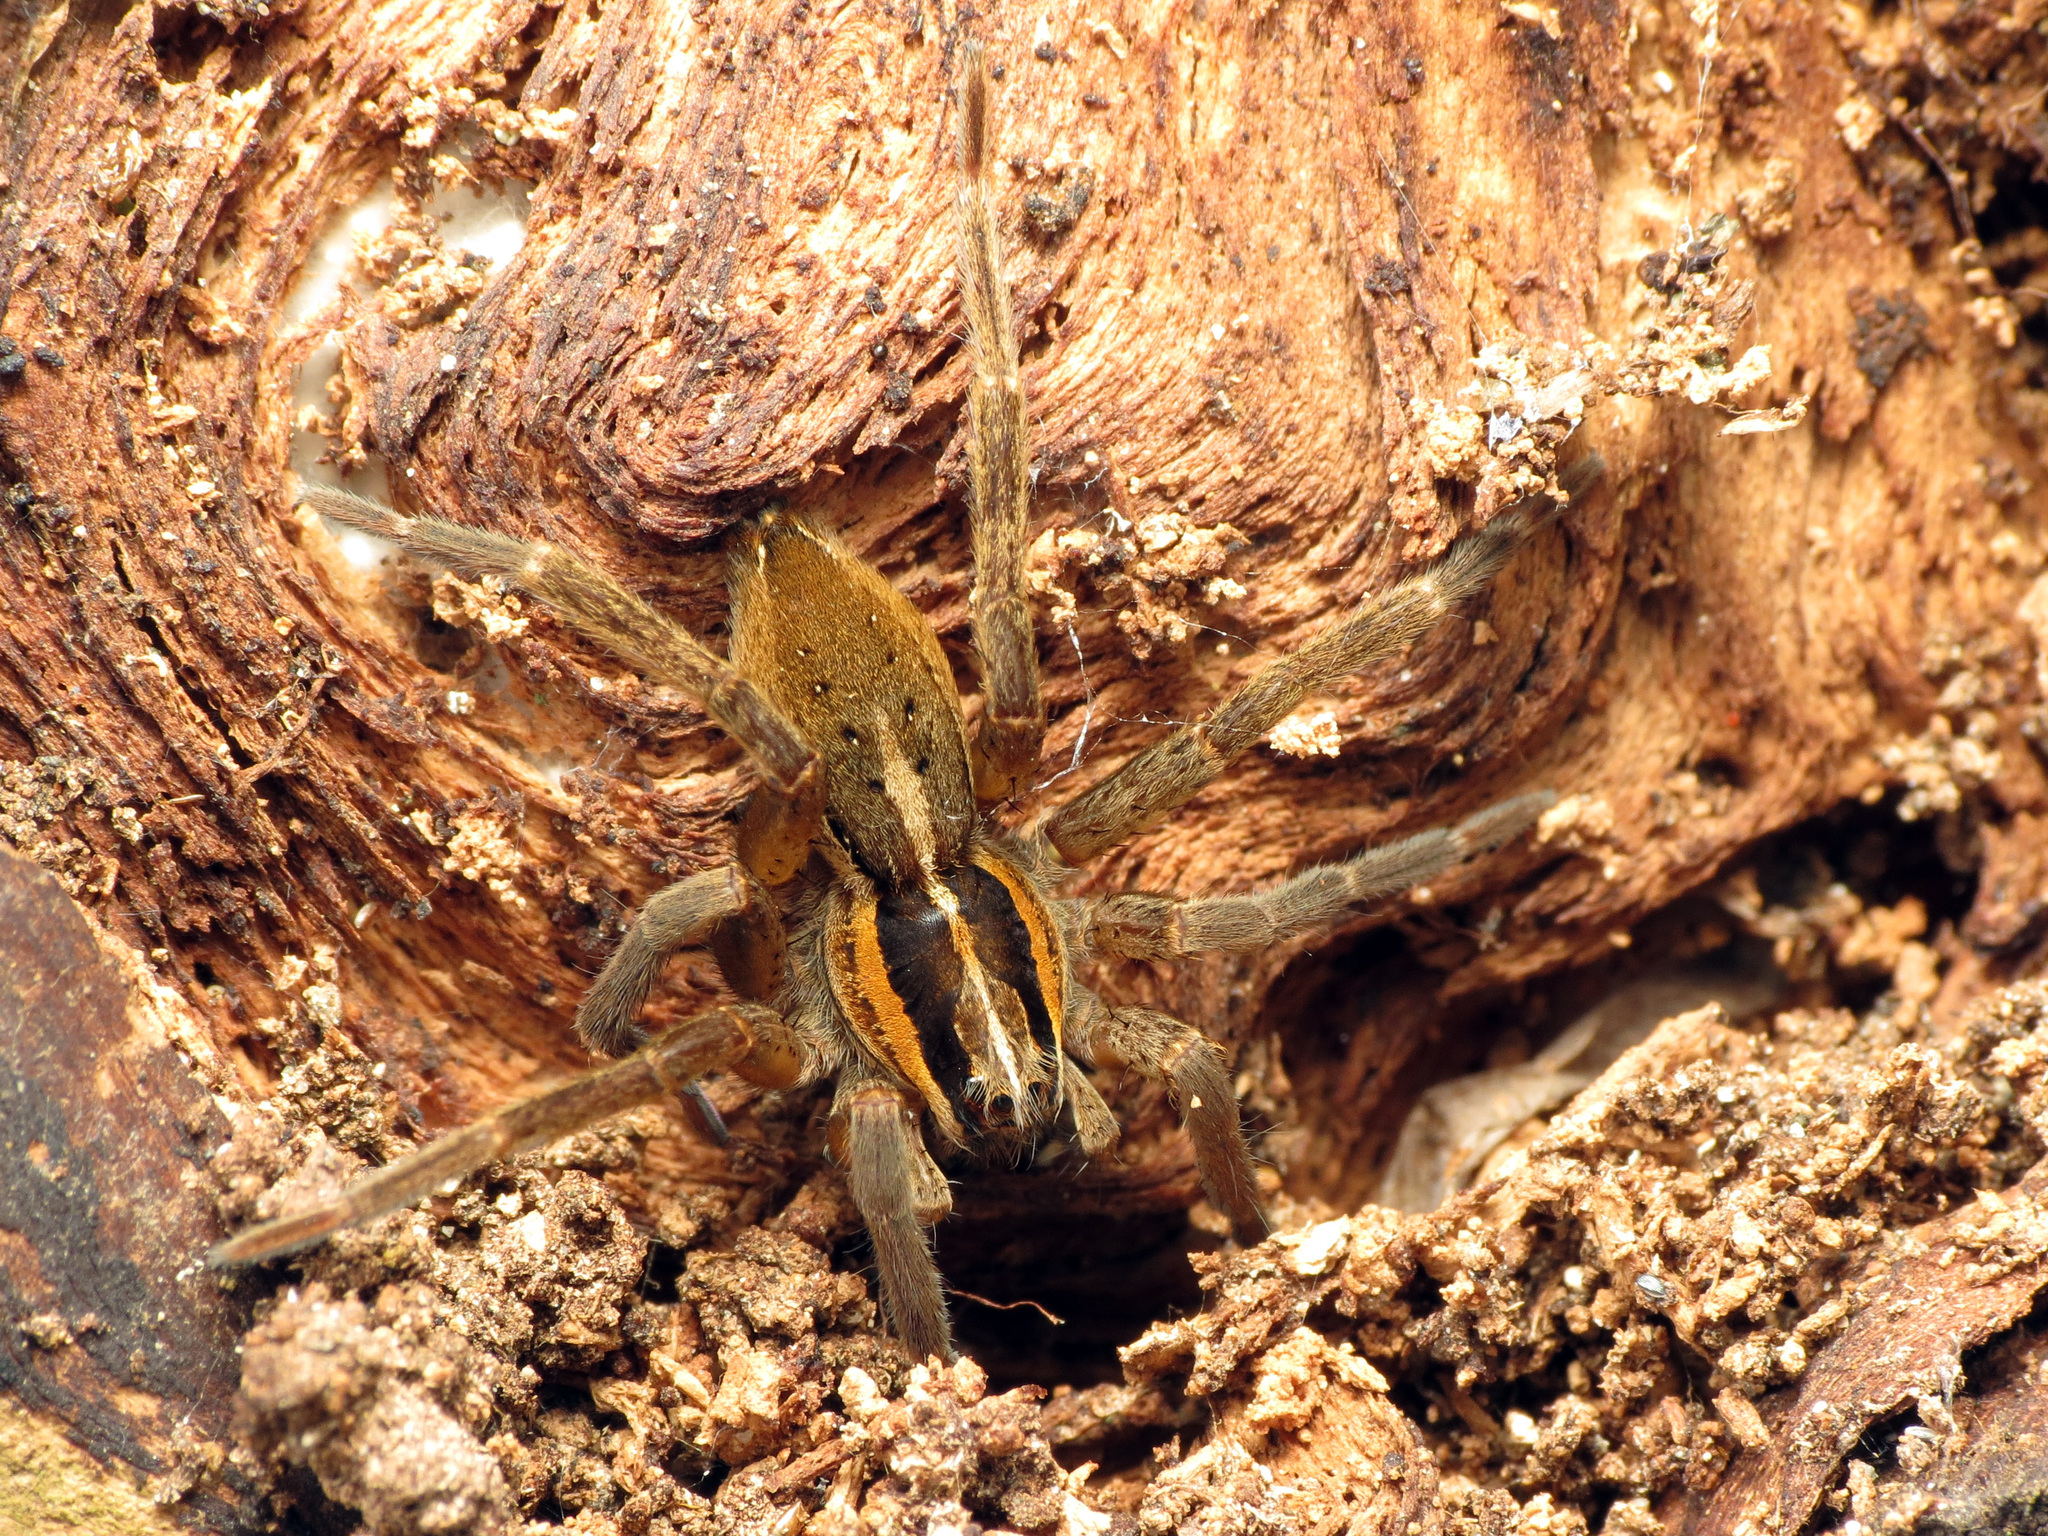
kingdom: Animalia
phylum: Arthropoda
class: Arachnida
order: Araneae
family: Pisauridae
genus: Dolomedes
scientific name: Dolomedes minor
